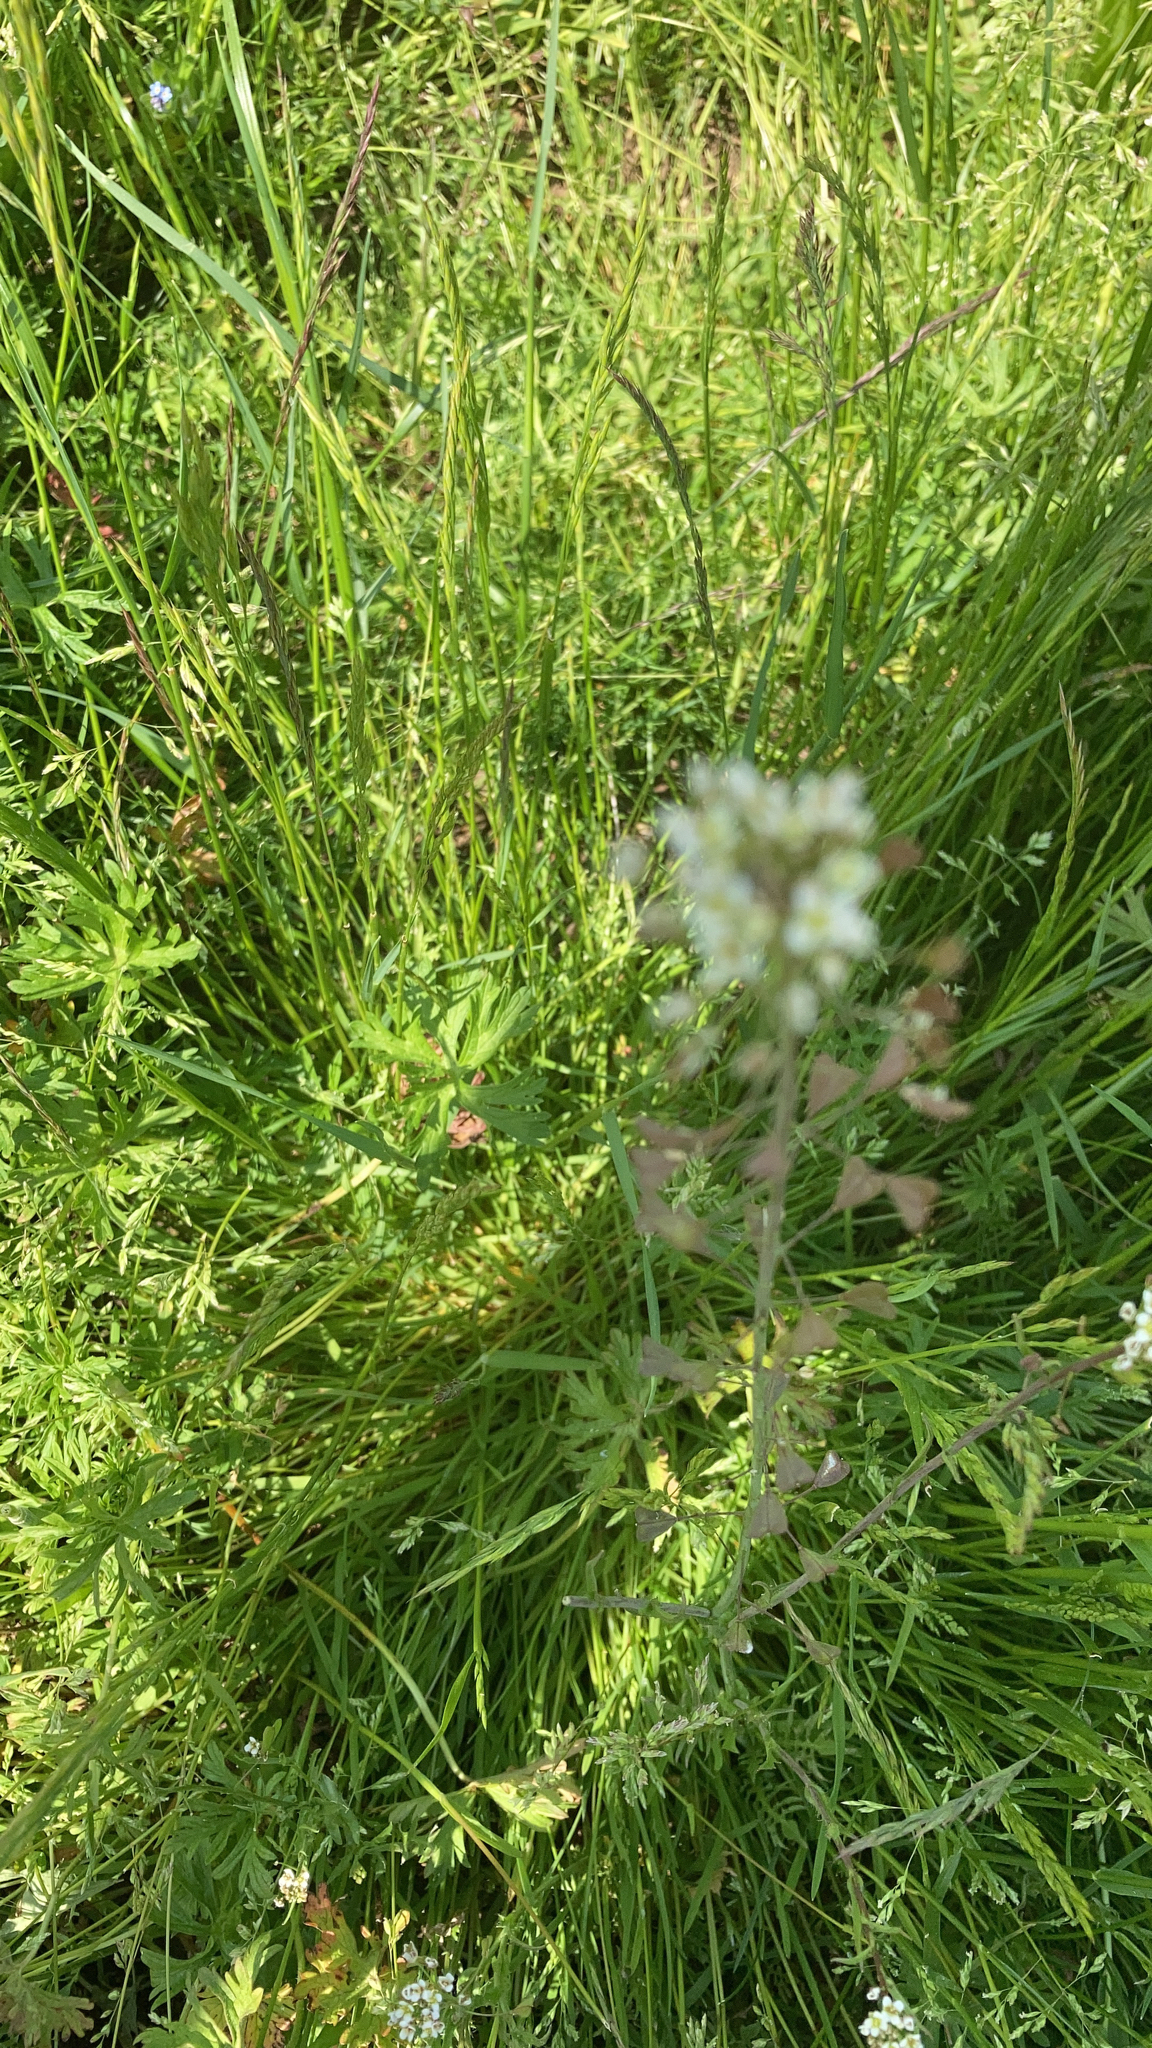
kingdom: Plantae
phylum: Tracheophyta
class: Magnoliopsida
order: Brassicales
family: Brassicaceae
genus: Capsella
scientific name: Capsella bursa-pastoris
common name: Shepherd's purse
